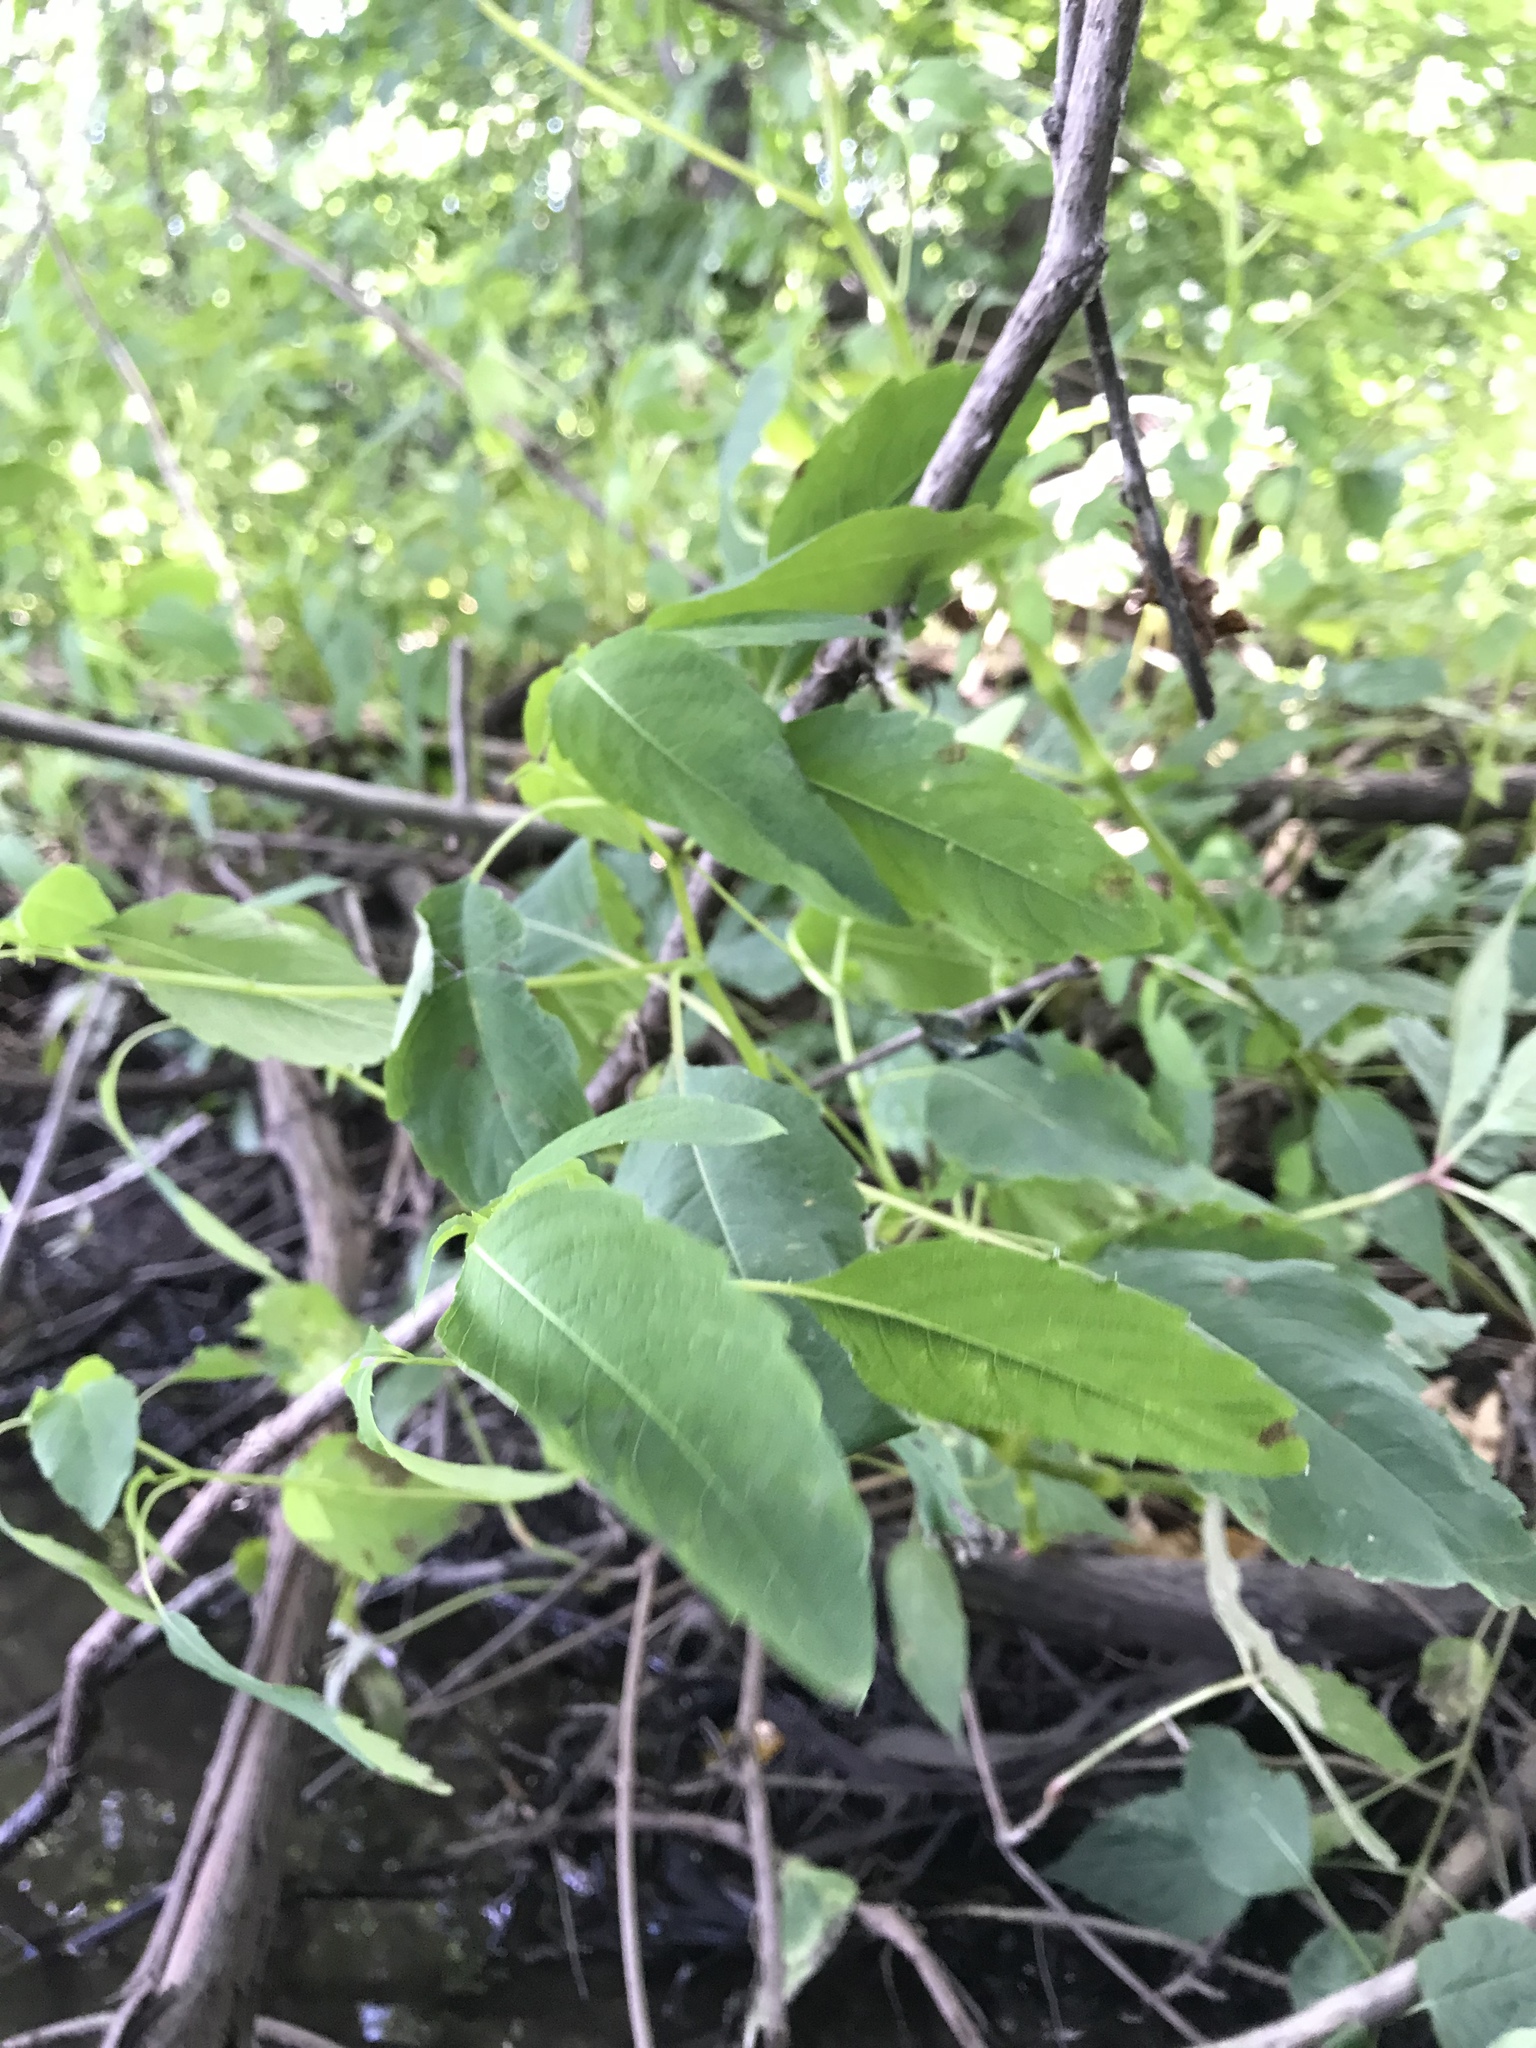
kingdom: Plantae
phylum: Tracheophyta
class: Magnoliopsida
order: Ericales
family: Balsaminaceae
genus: Impatiens
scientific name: Impatiens capensis
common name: Orange balsam
